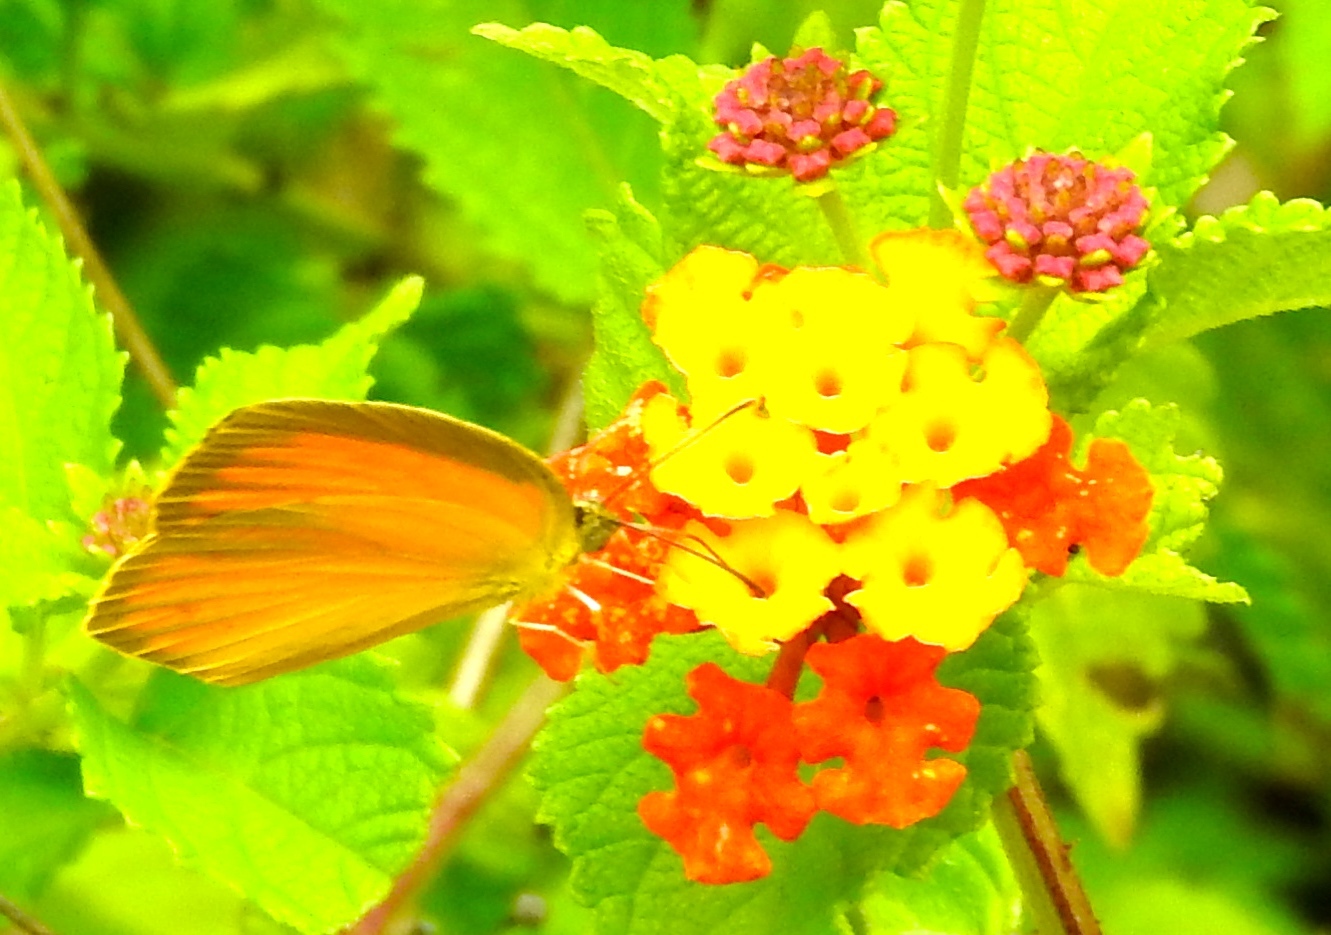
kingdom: Animalia
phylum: Arthropoda
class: Insecta
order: Lepidoptera
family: Pieridae
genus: Pyrisitia
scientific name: Pyrisitia proterpia
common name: Tailed orange
